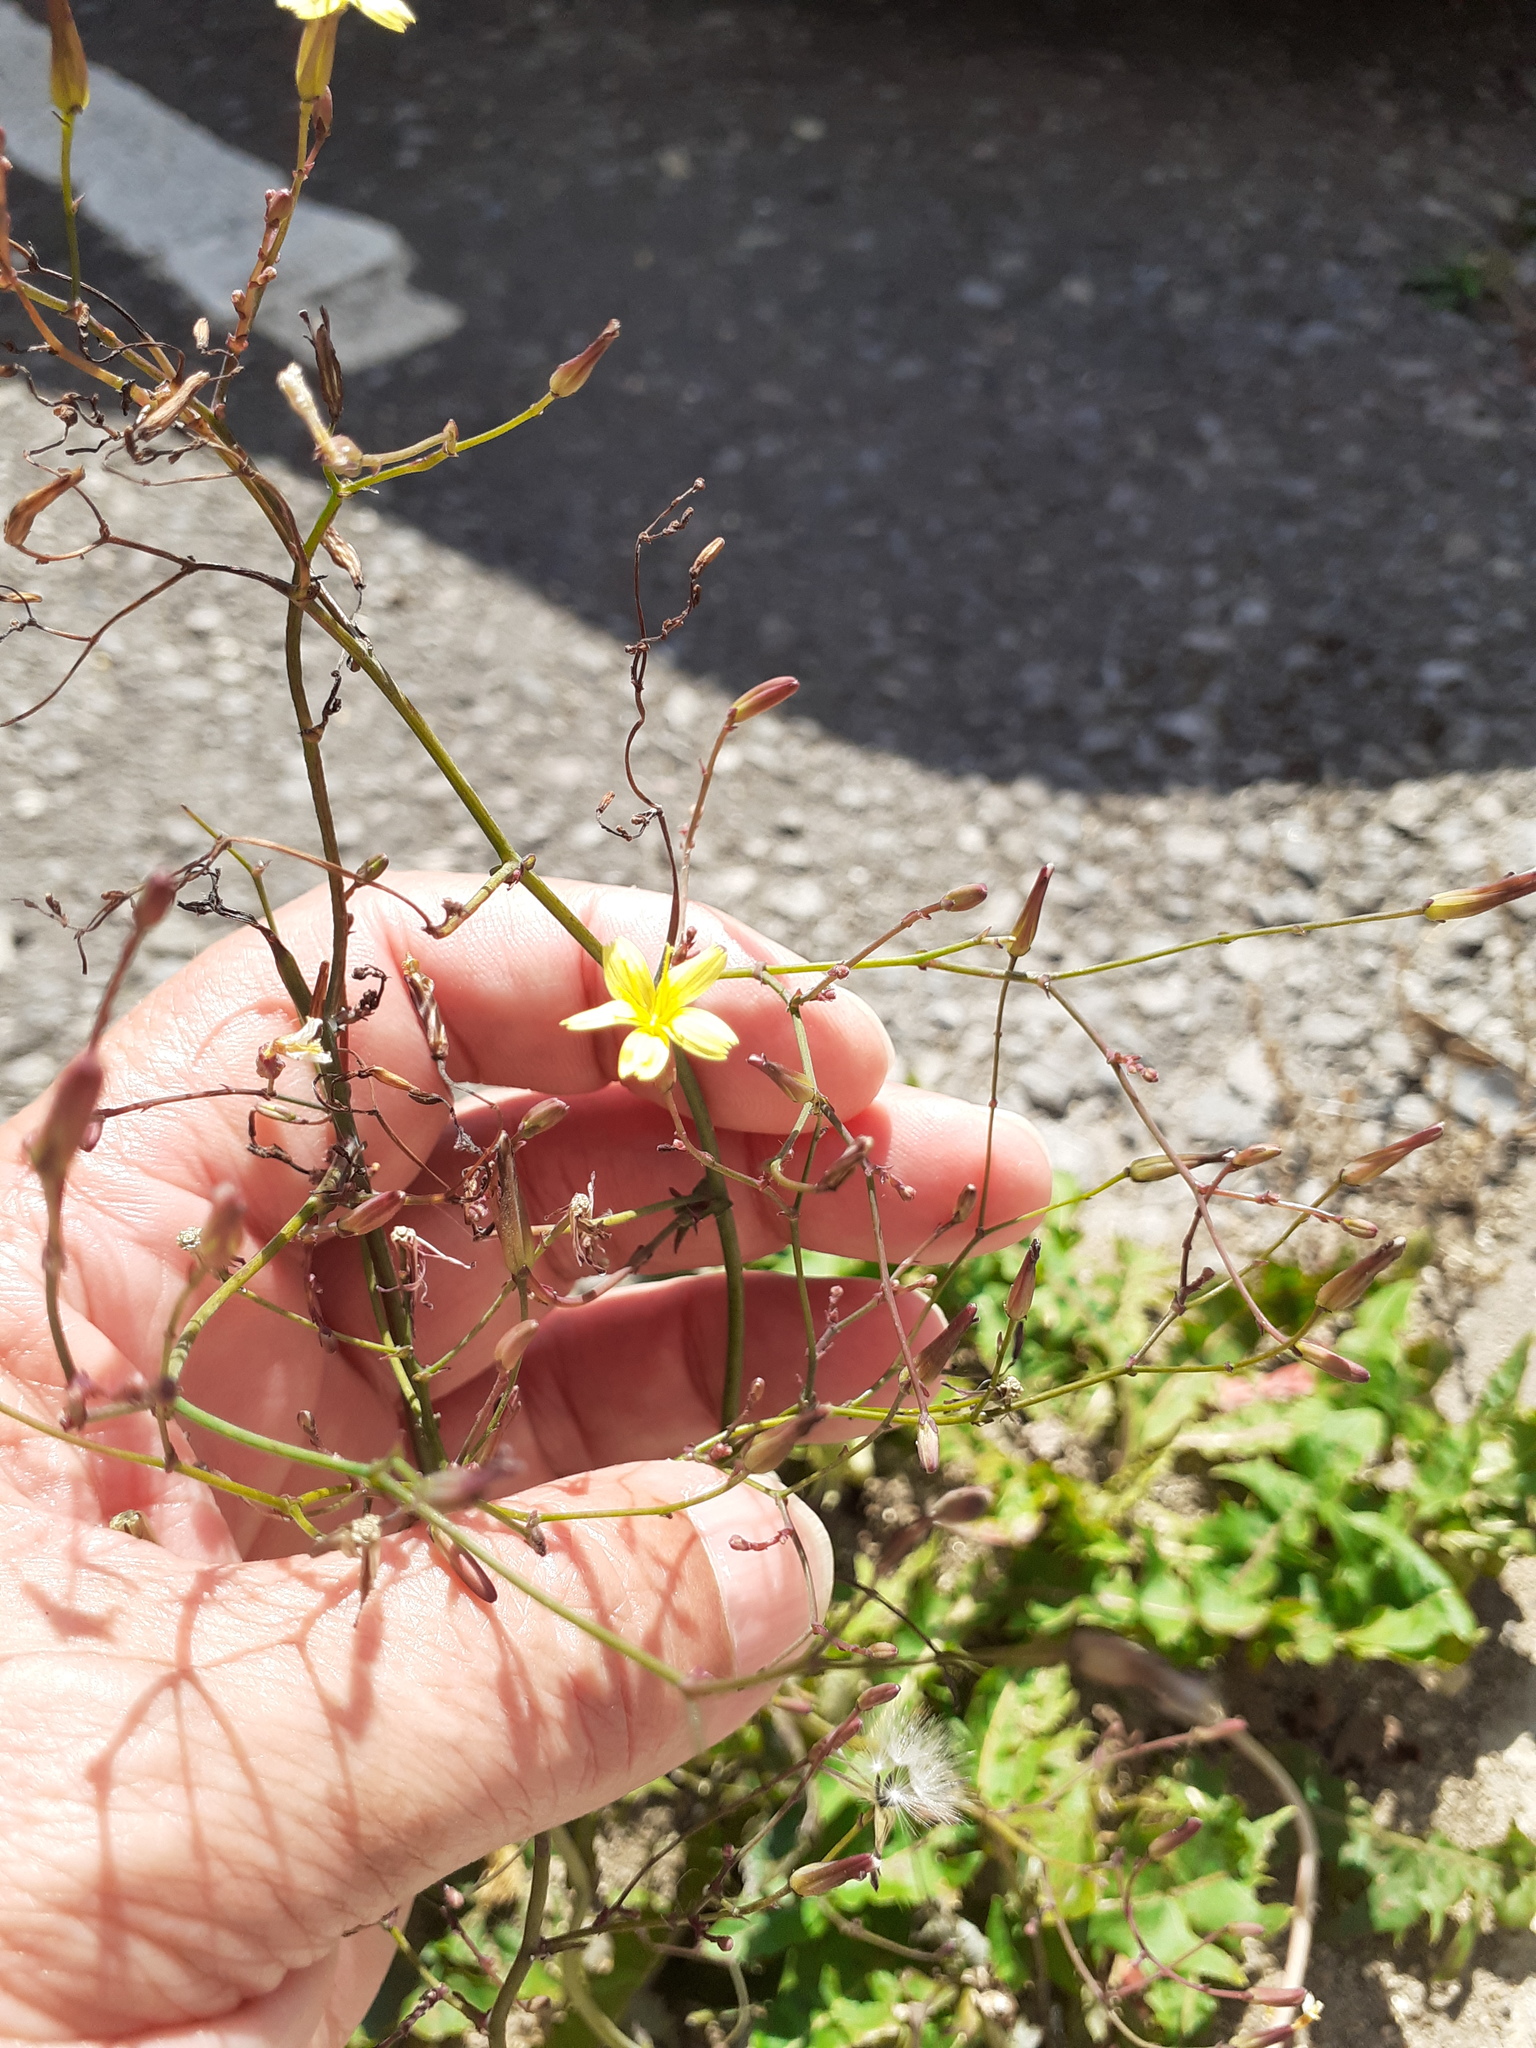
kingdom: Plantae
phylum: Tracheophyta
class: Magnoliopsida
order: Asterales
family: Asteraceae
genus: Mycelis
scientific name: Mycelis muralis
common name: Wall lettuce
